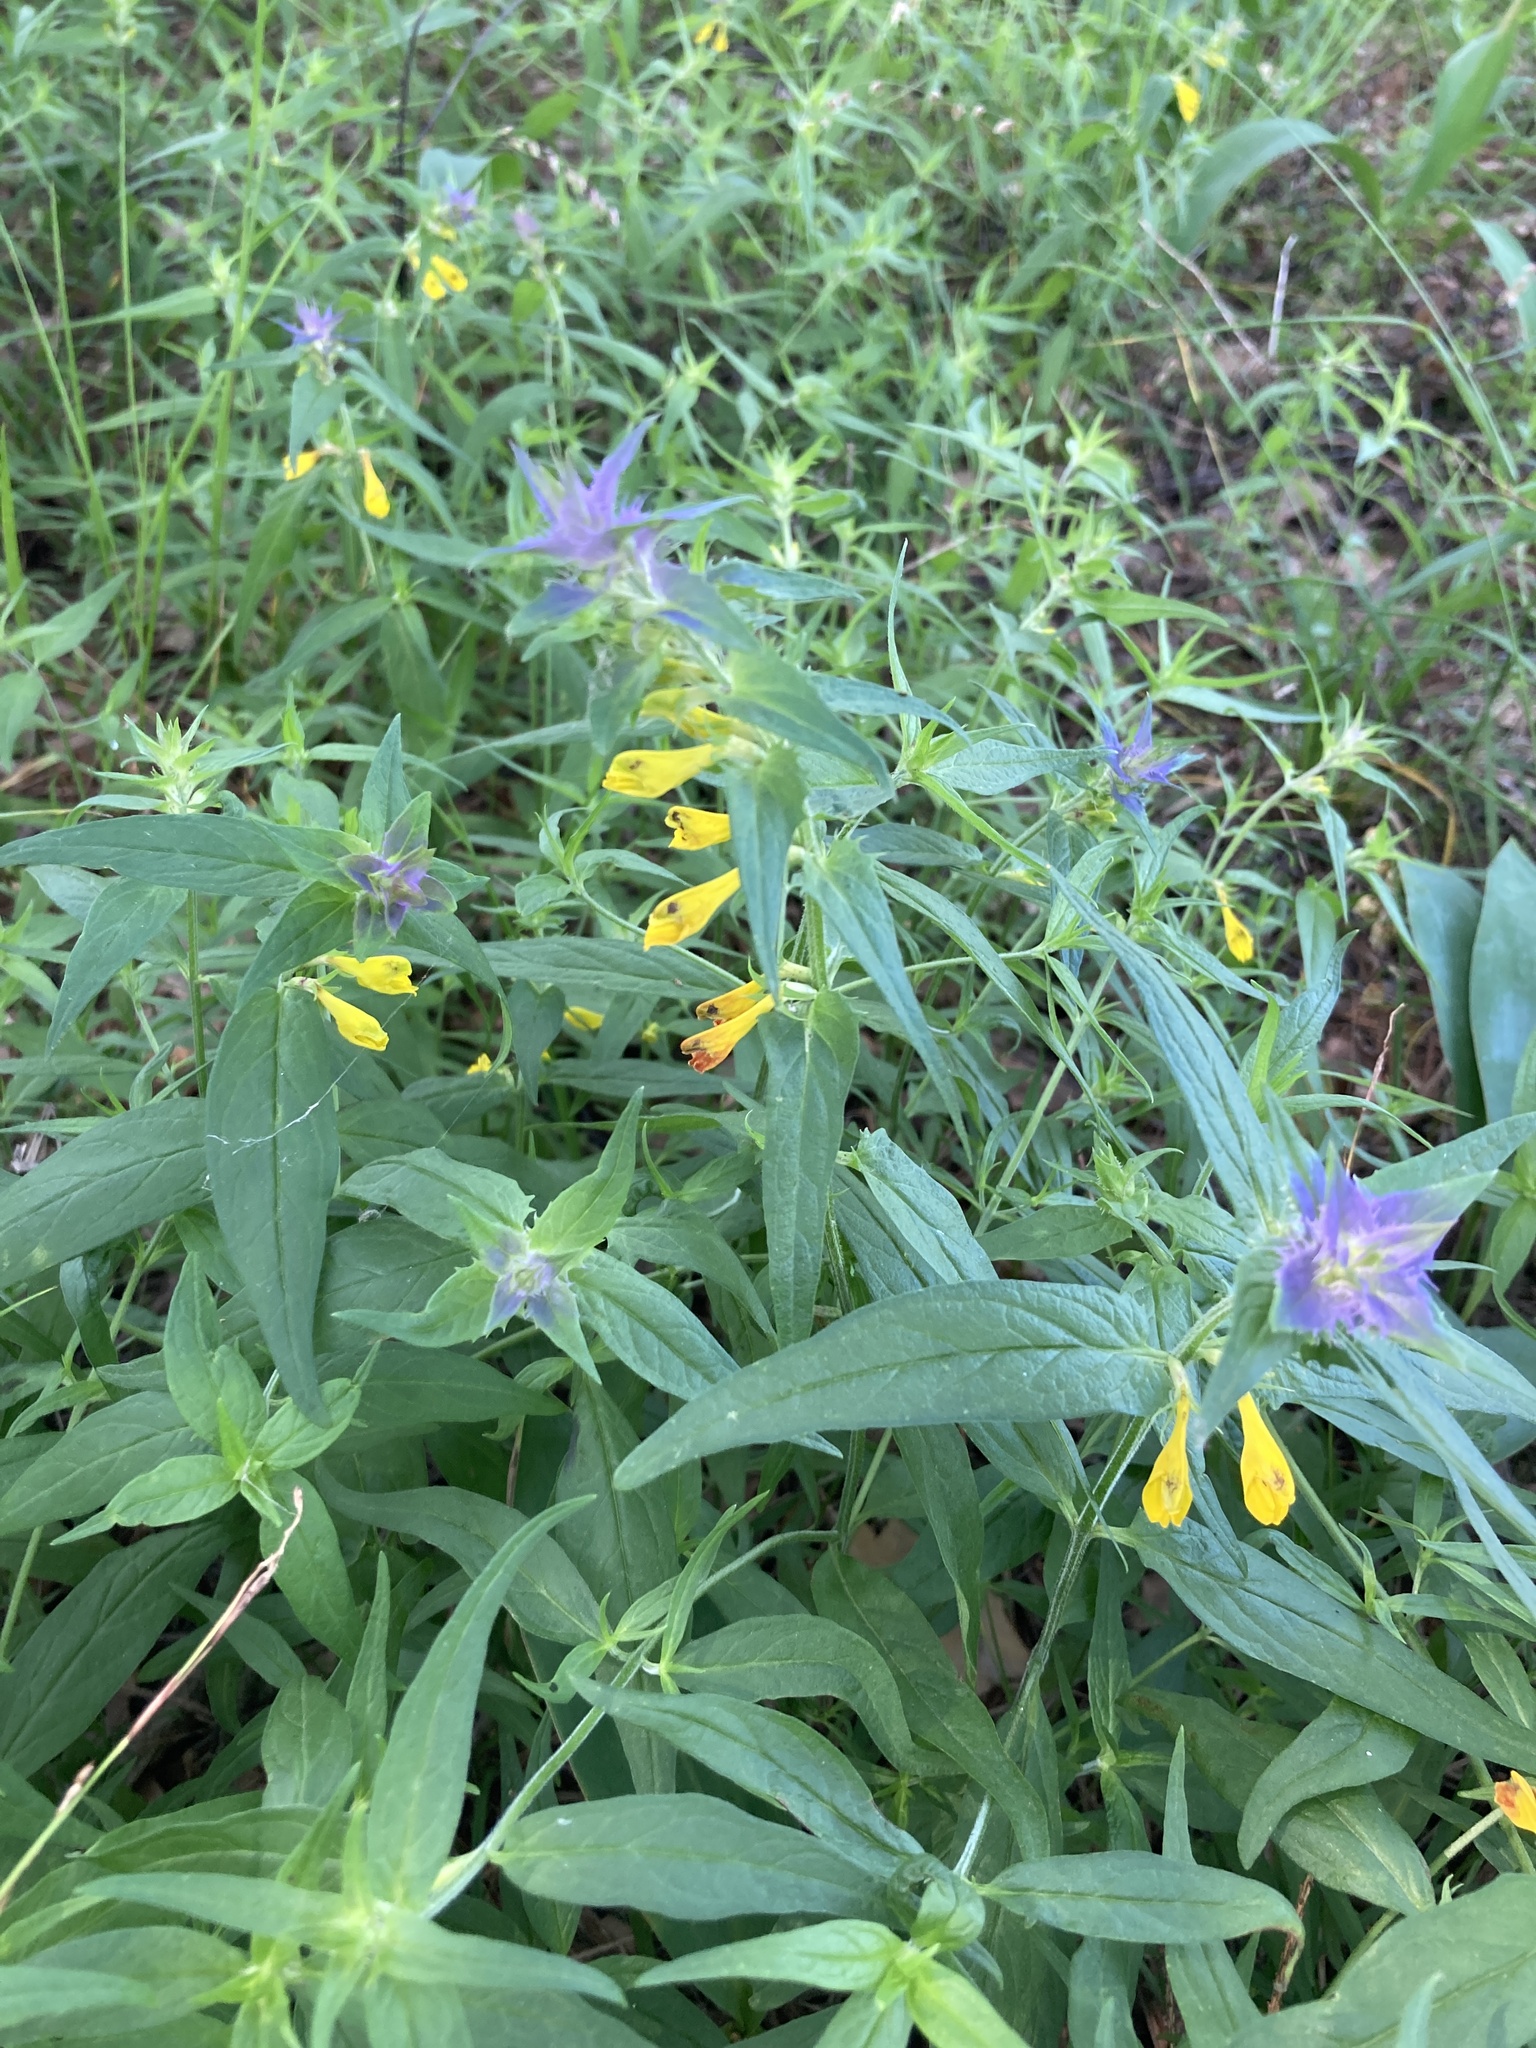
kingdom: Plantae
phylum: Tracheophyta
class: Magnoliopsida
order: Lamiales
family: Orobanchaceae
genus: Melampyrum
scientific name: Melampyrum nemorosum
